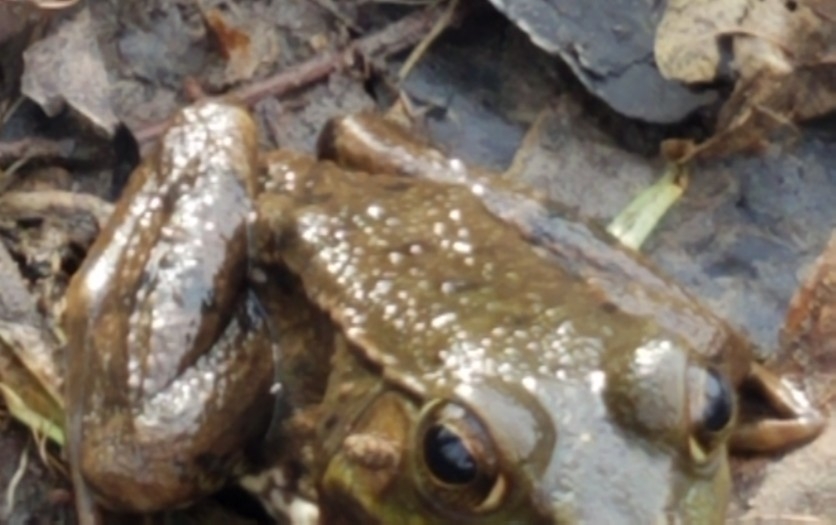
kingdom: Animalia
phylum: Chordata
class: Amphibia
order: Anura
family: Ranidae
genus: Lithobates
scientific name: Lithobates clamitans
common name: Green frog
